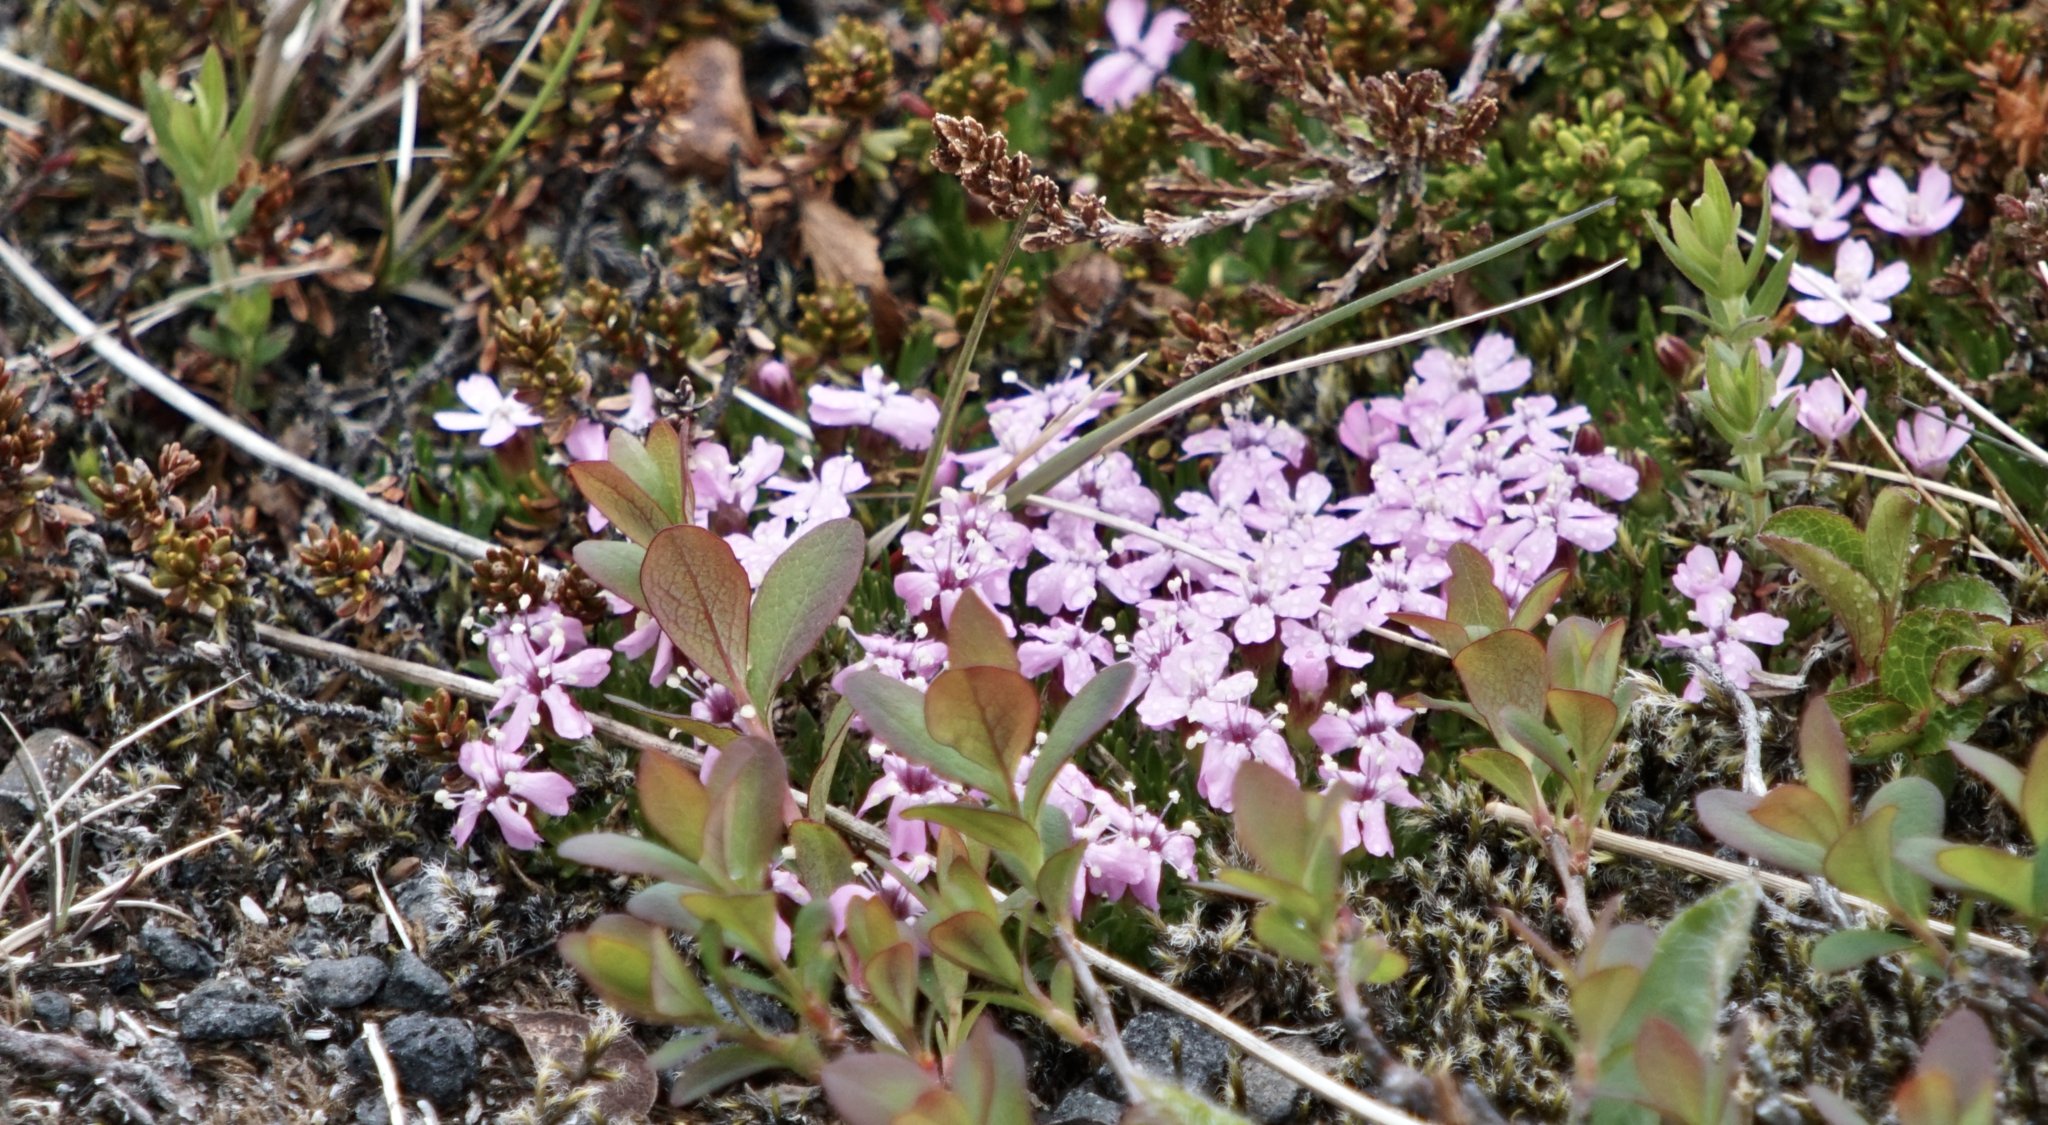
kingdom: Plantae
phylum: Tracheophyta
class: Magnoliopsida
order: Caryophyllales
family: Caryophyllaceae
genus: Silene
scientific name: Silene acaulis
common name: Moss campion
